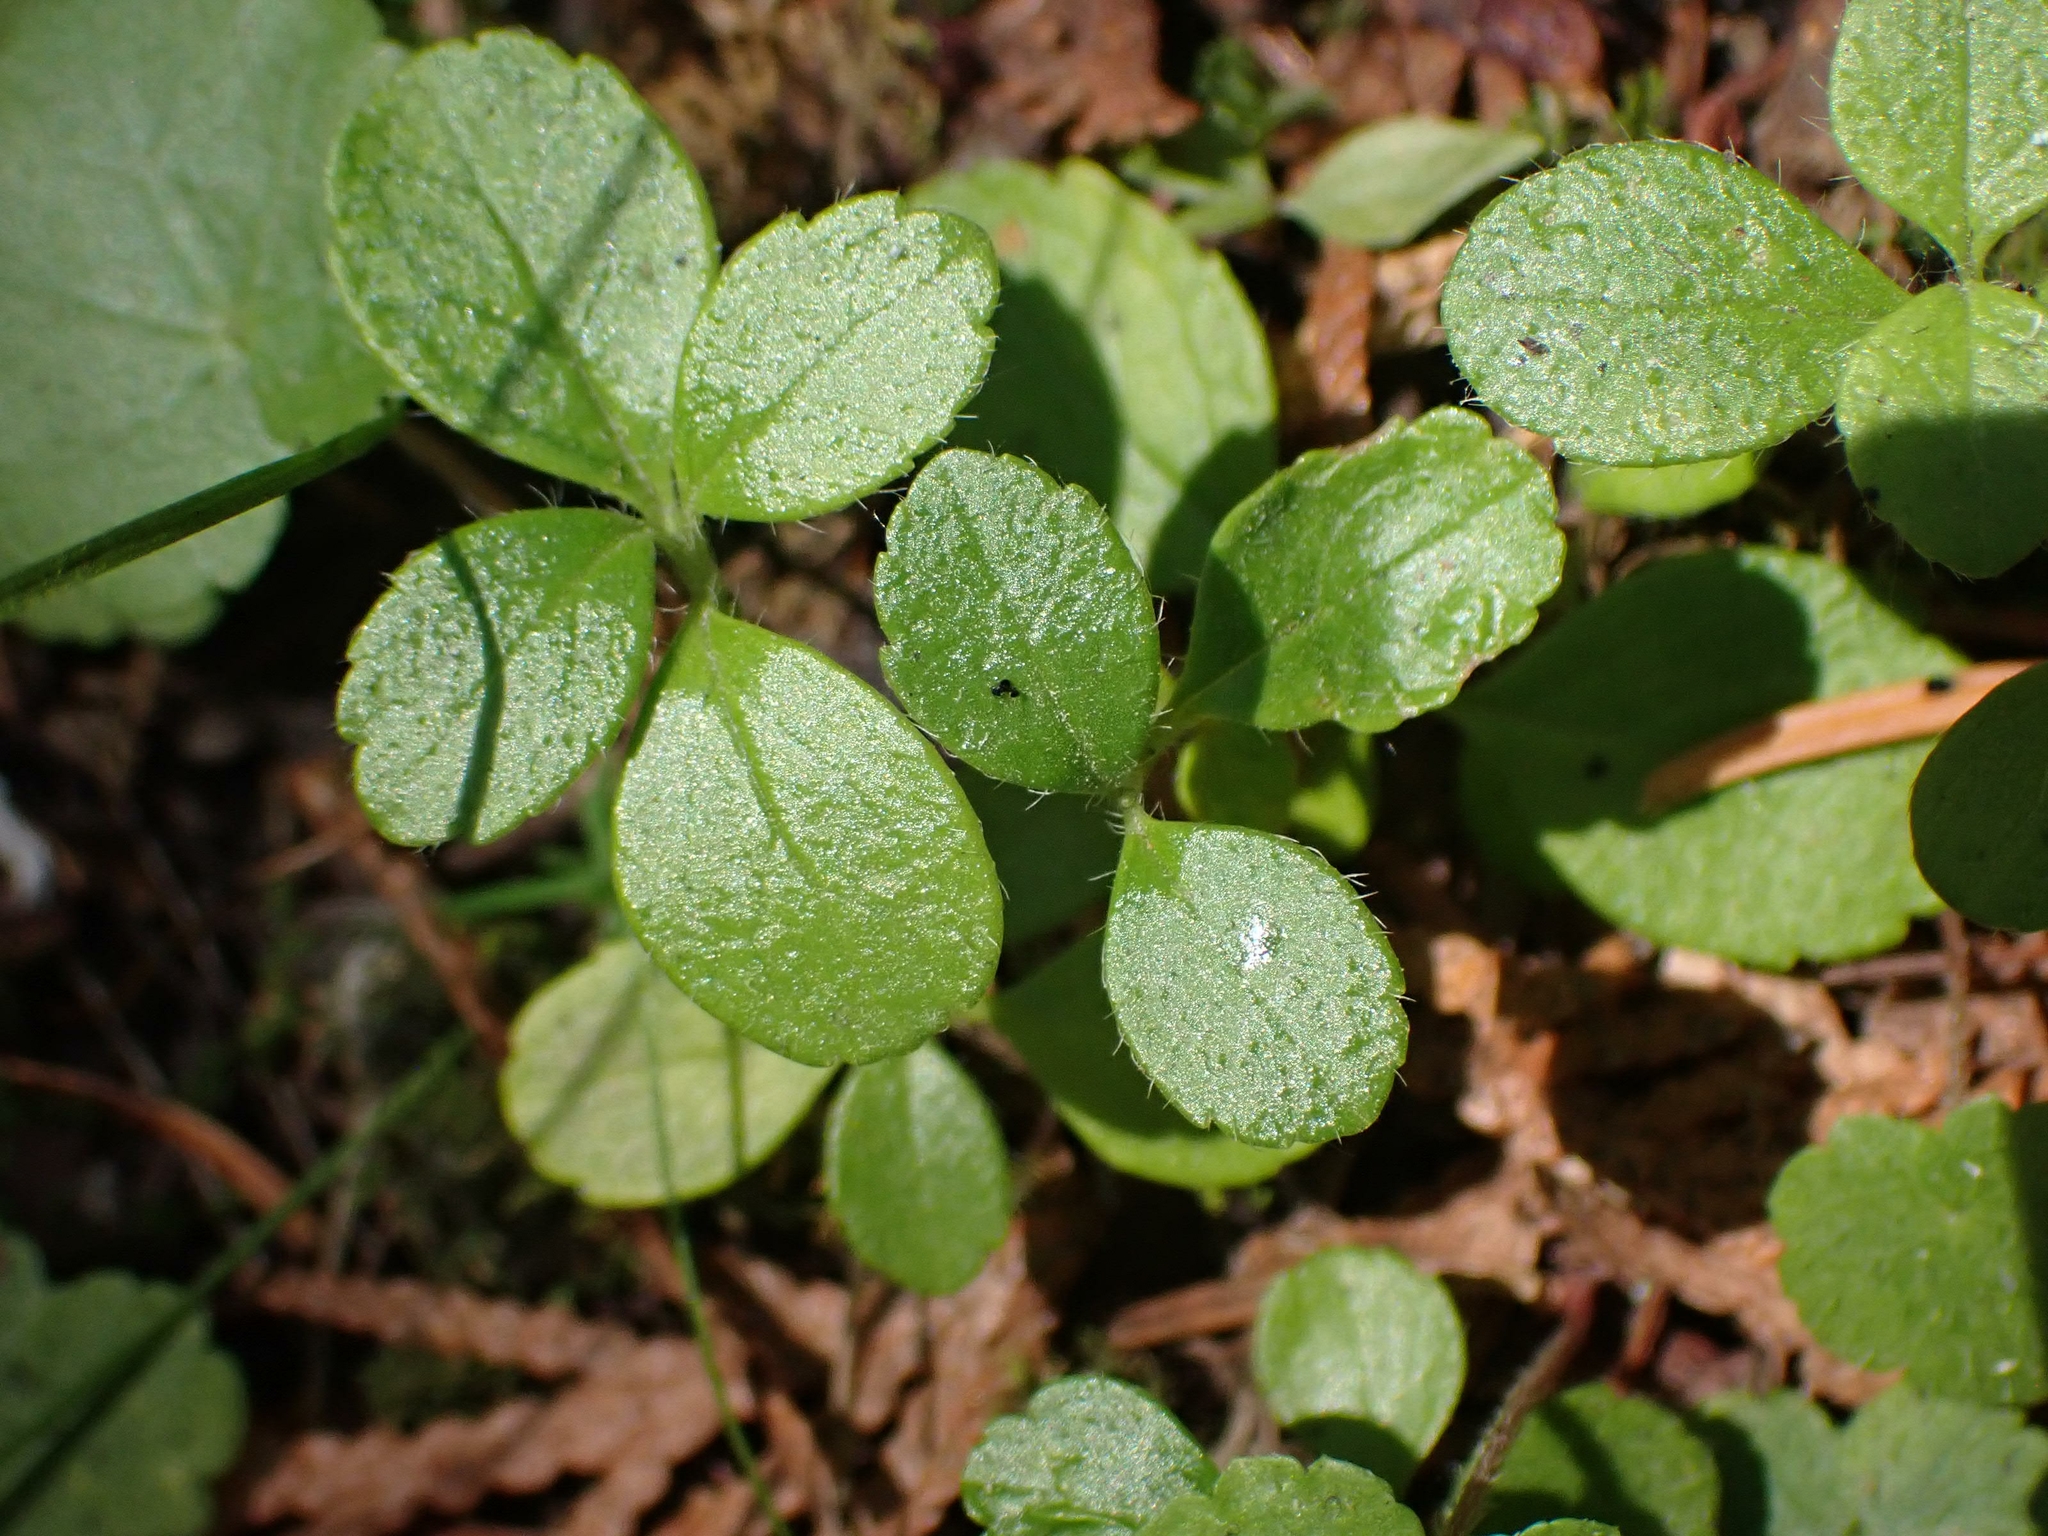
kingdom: Plantae
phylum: Tracheophyta
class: Magnoliopsida
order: Dipsacales
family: Caprifoliaceae
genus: Linnaea
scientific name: Linnaea borealis
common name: Twinflower
